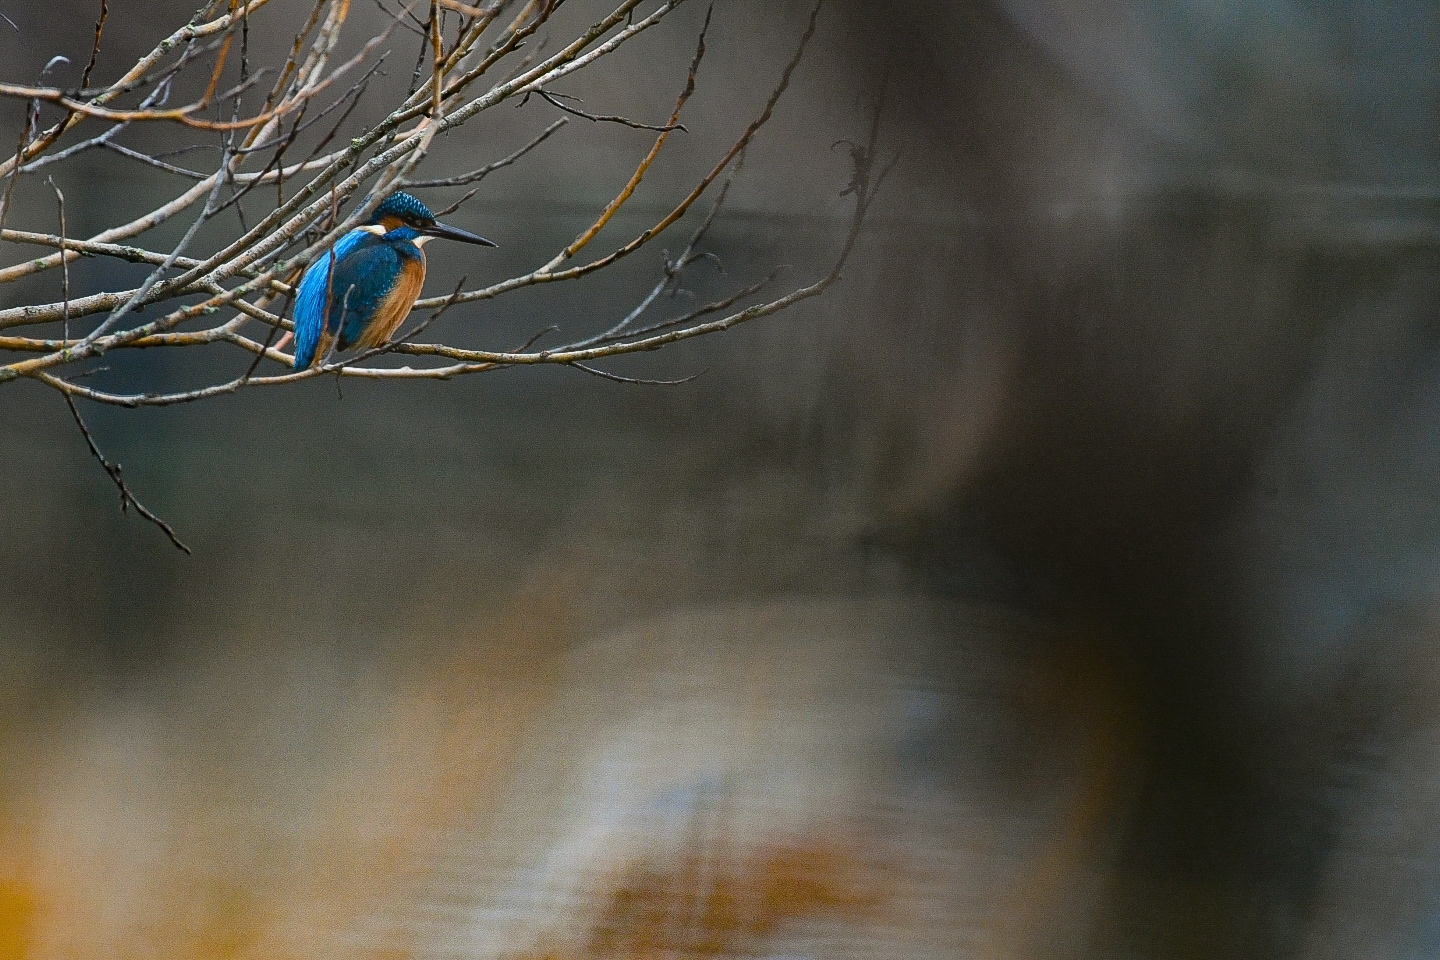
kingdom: Animalia
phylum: Chordata
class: Aves
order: Coraciiformes
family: Alcedinidae
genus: Alcedo
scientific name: Alcedo atthis
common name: Common kingfisher
